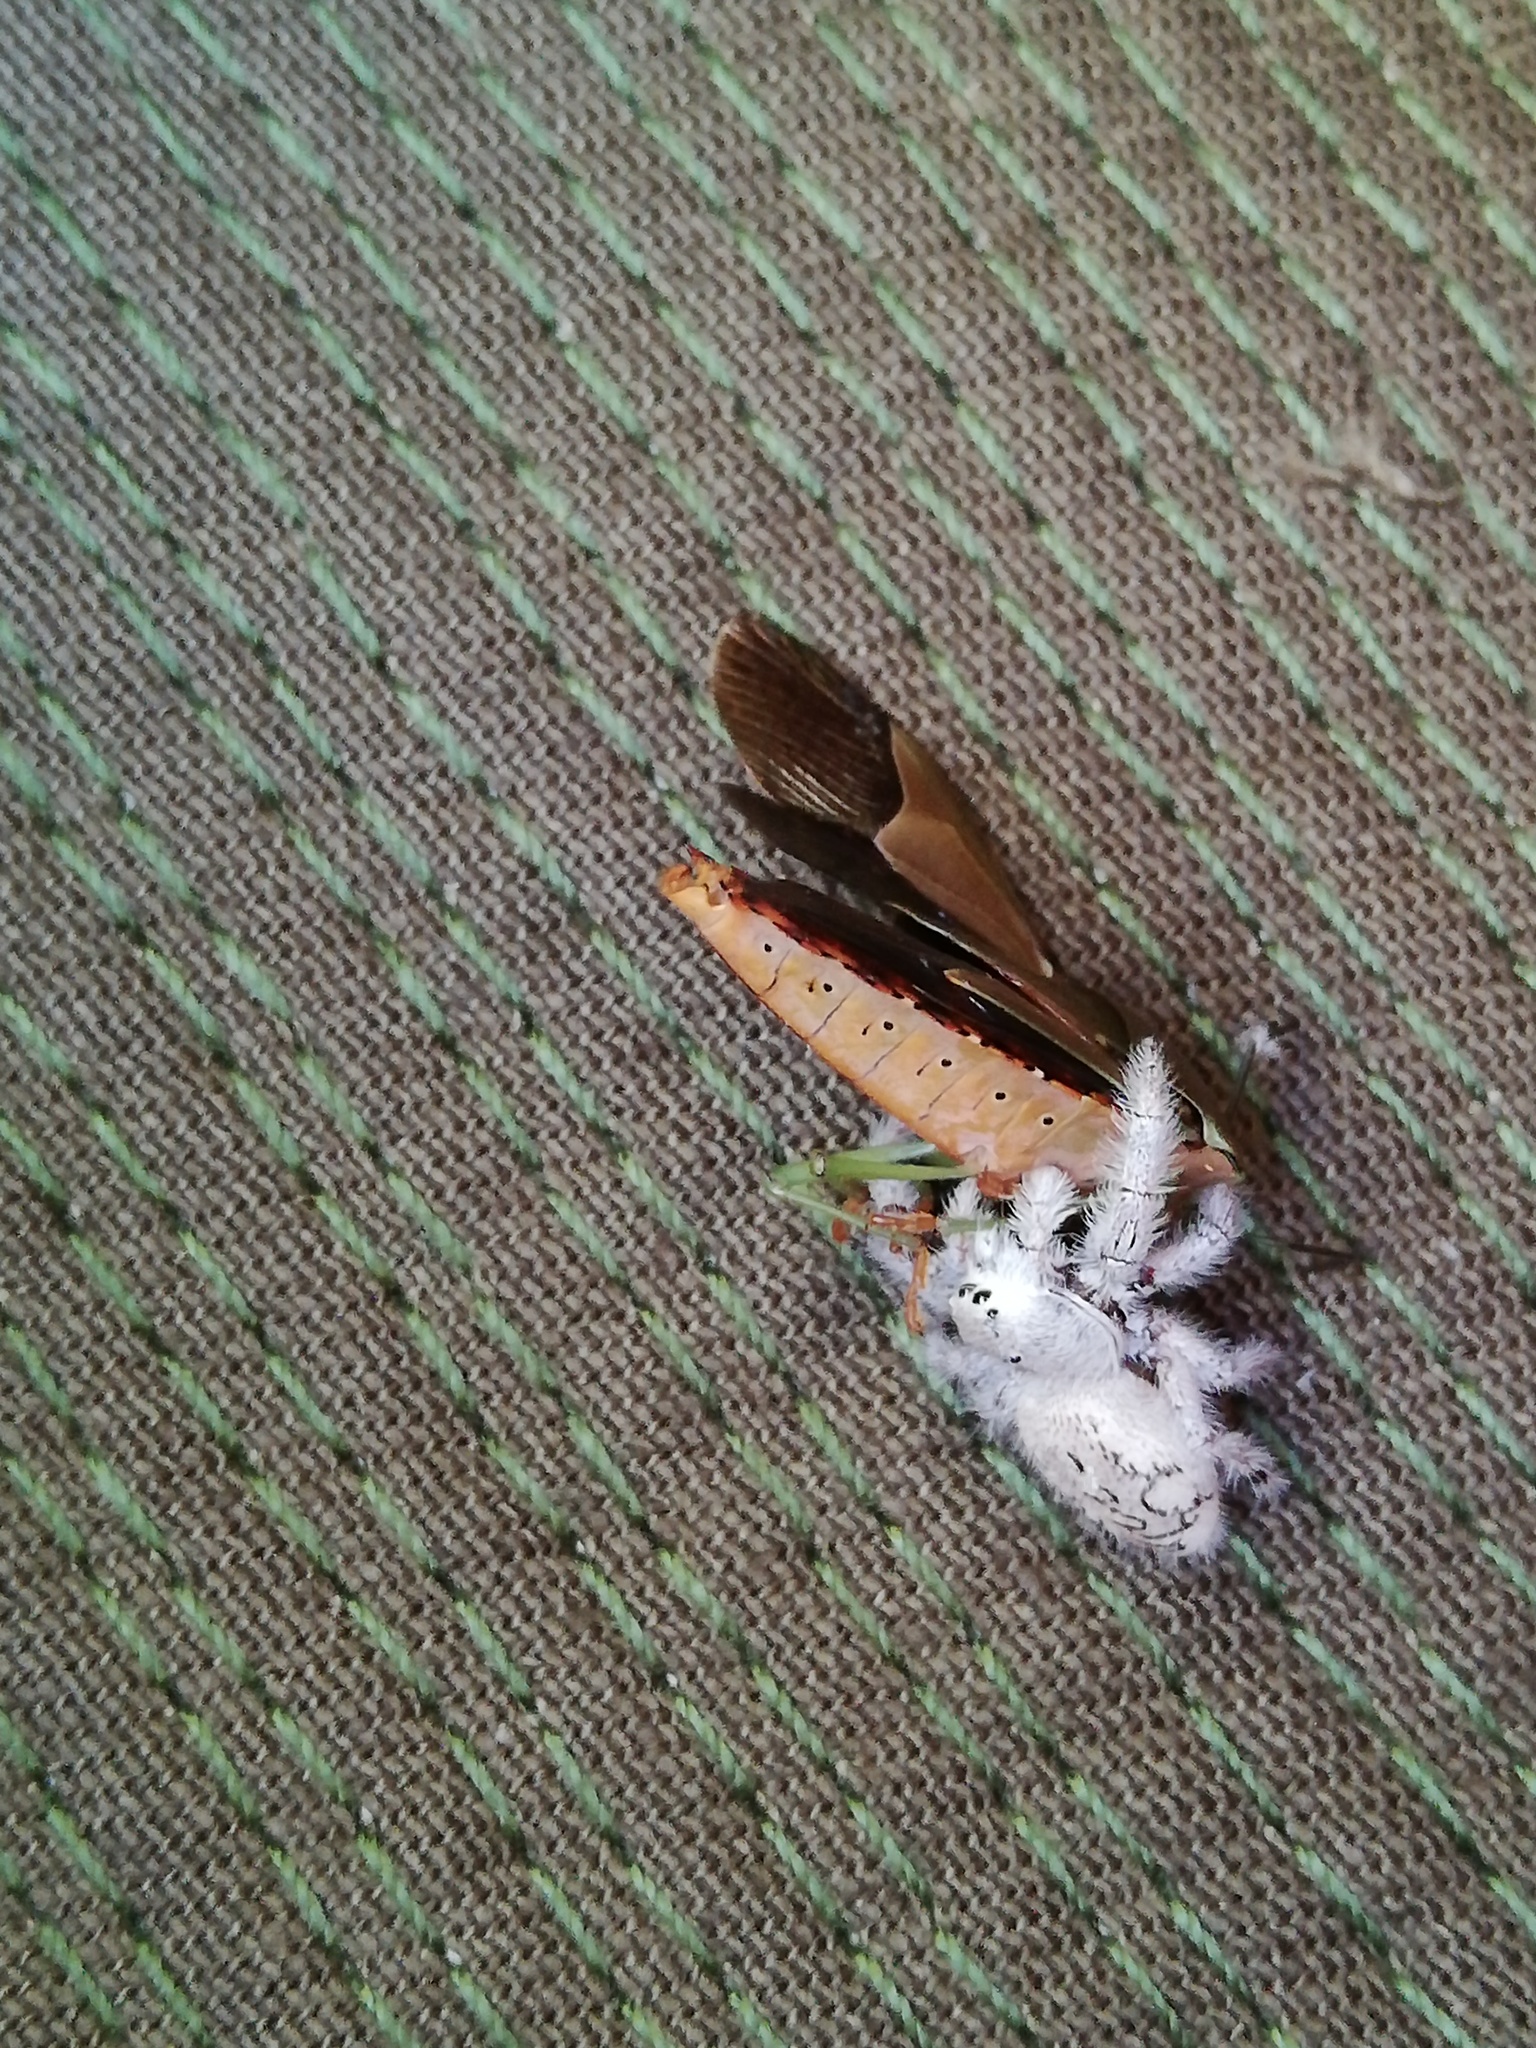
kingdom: Animalia
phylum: Arthropoda
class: Arachnida
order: Araneae
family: Salticidae
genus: Paraphidippus
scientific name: Paraphidippus fartilis
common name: Jumping spiders
